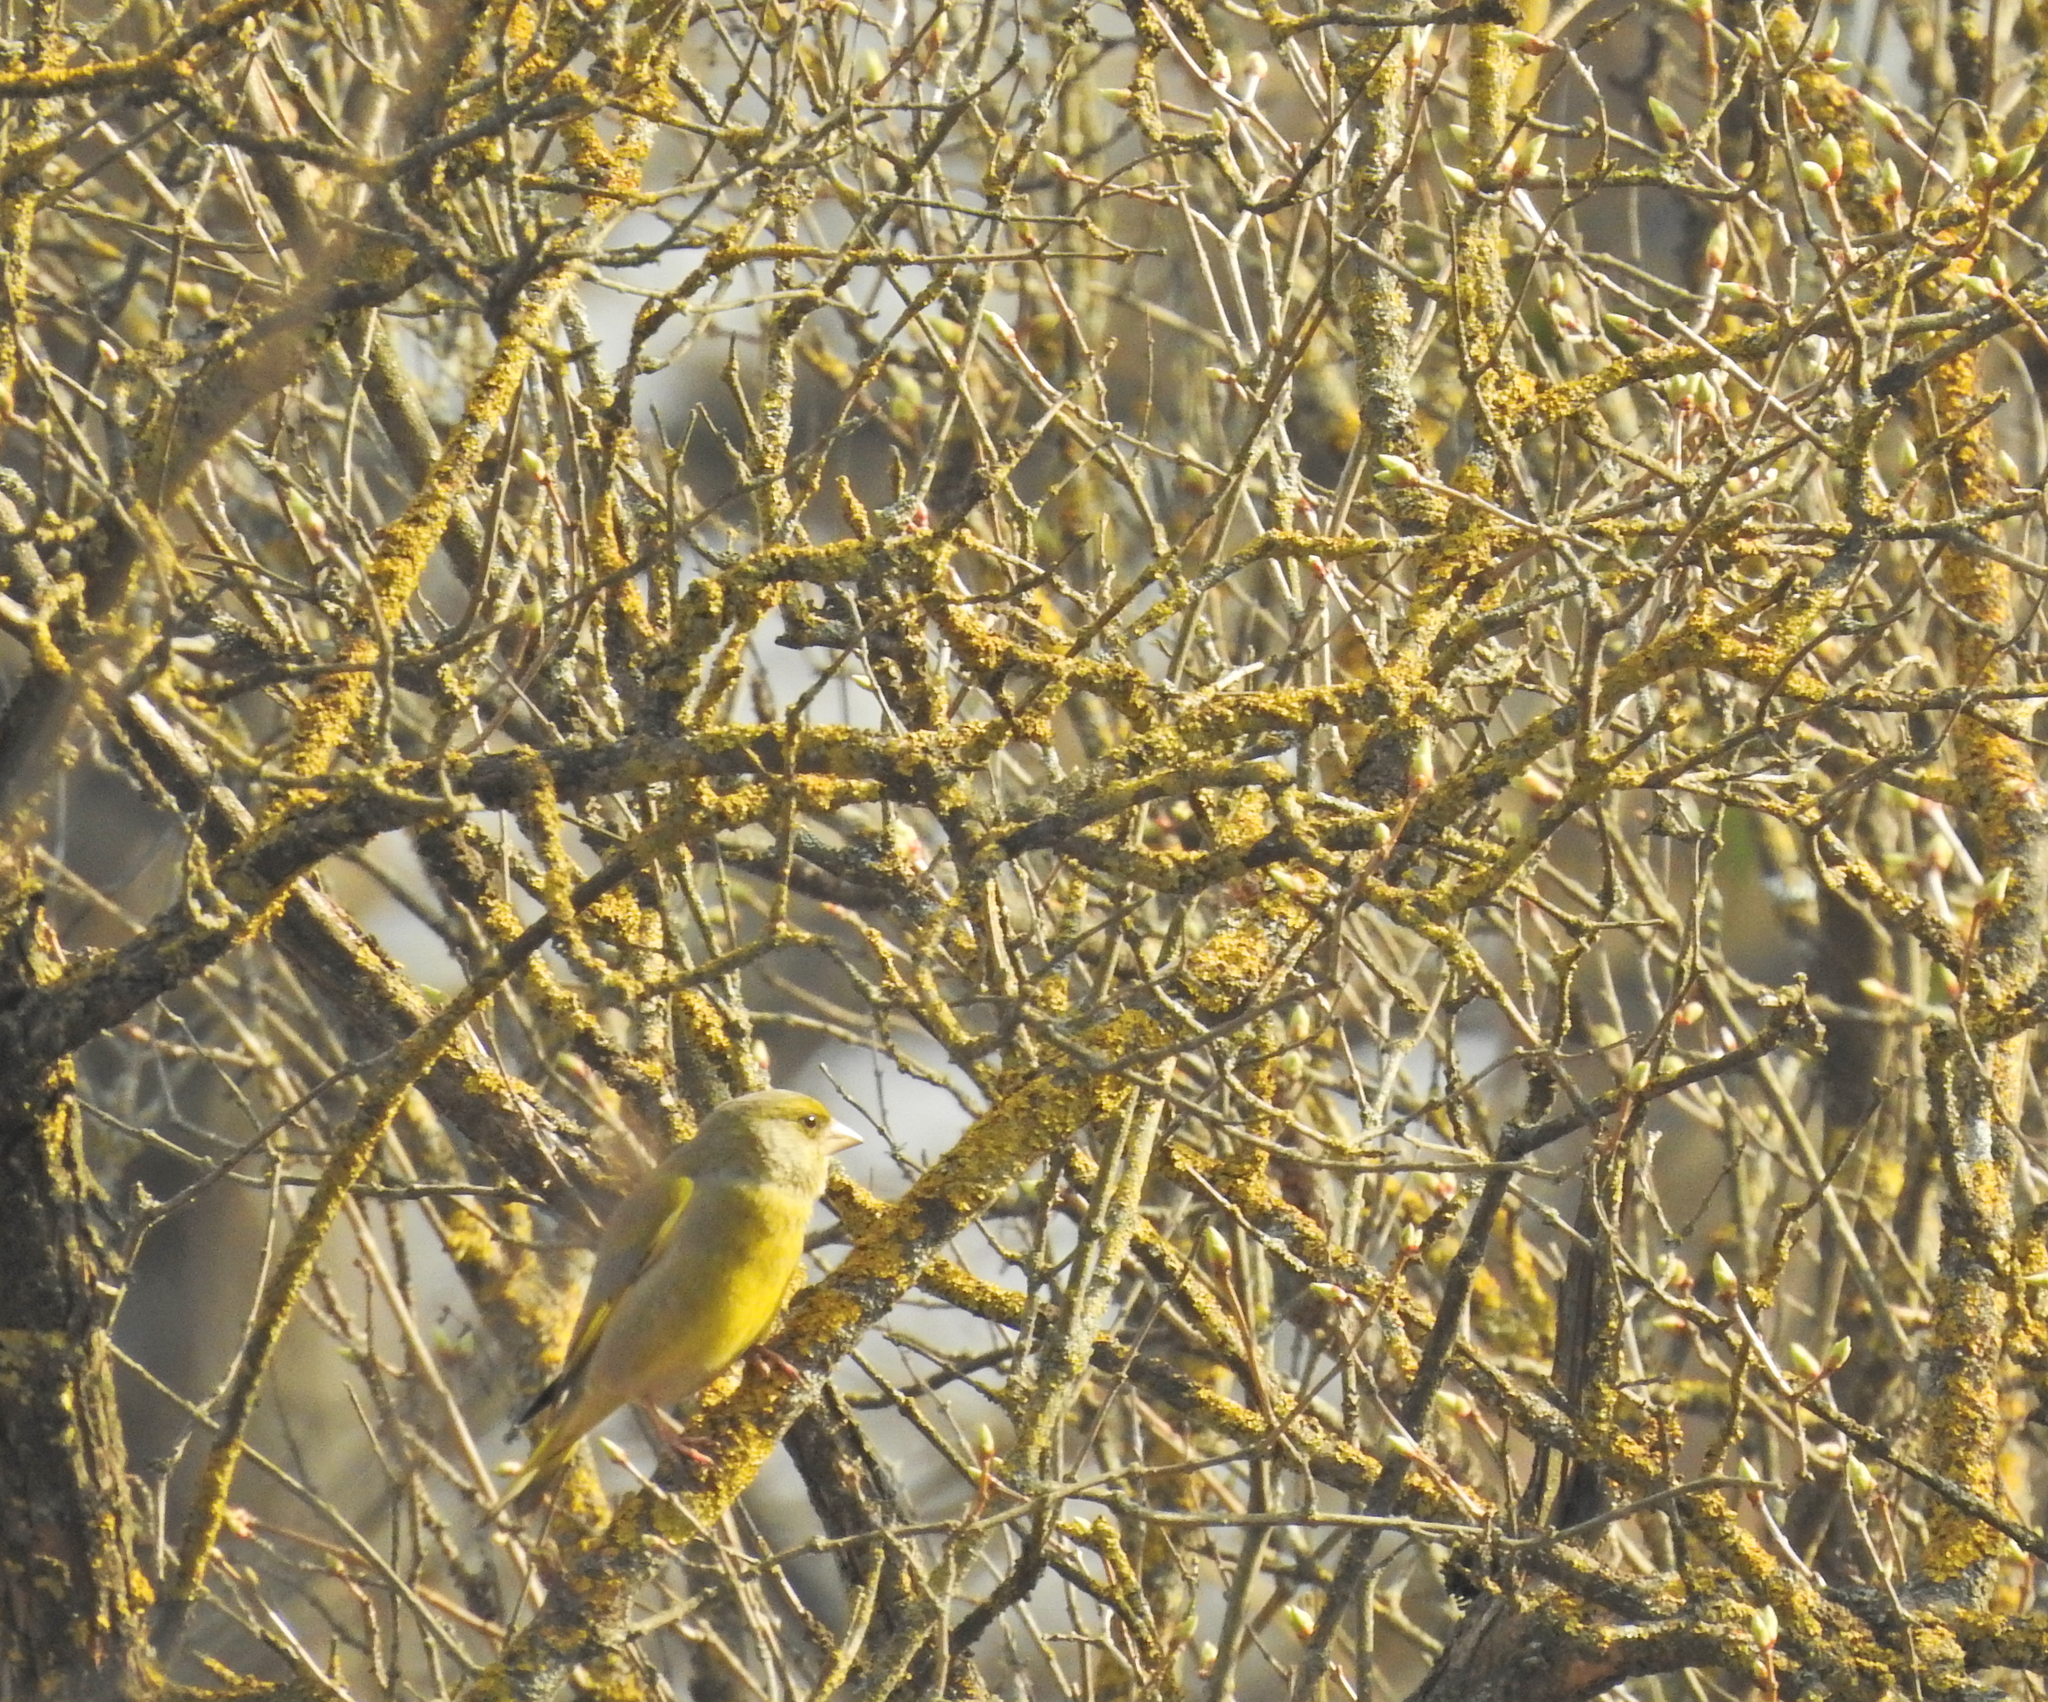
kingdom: Plantae
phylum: Tracheophyta
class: Liliopsida
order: Poales
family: Poaceae
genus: Chloris
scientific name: Chloris chloris
